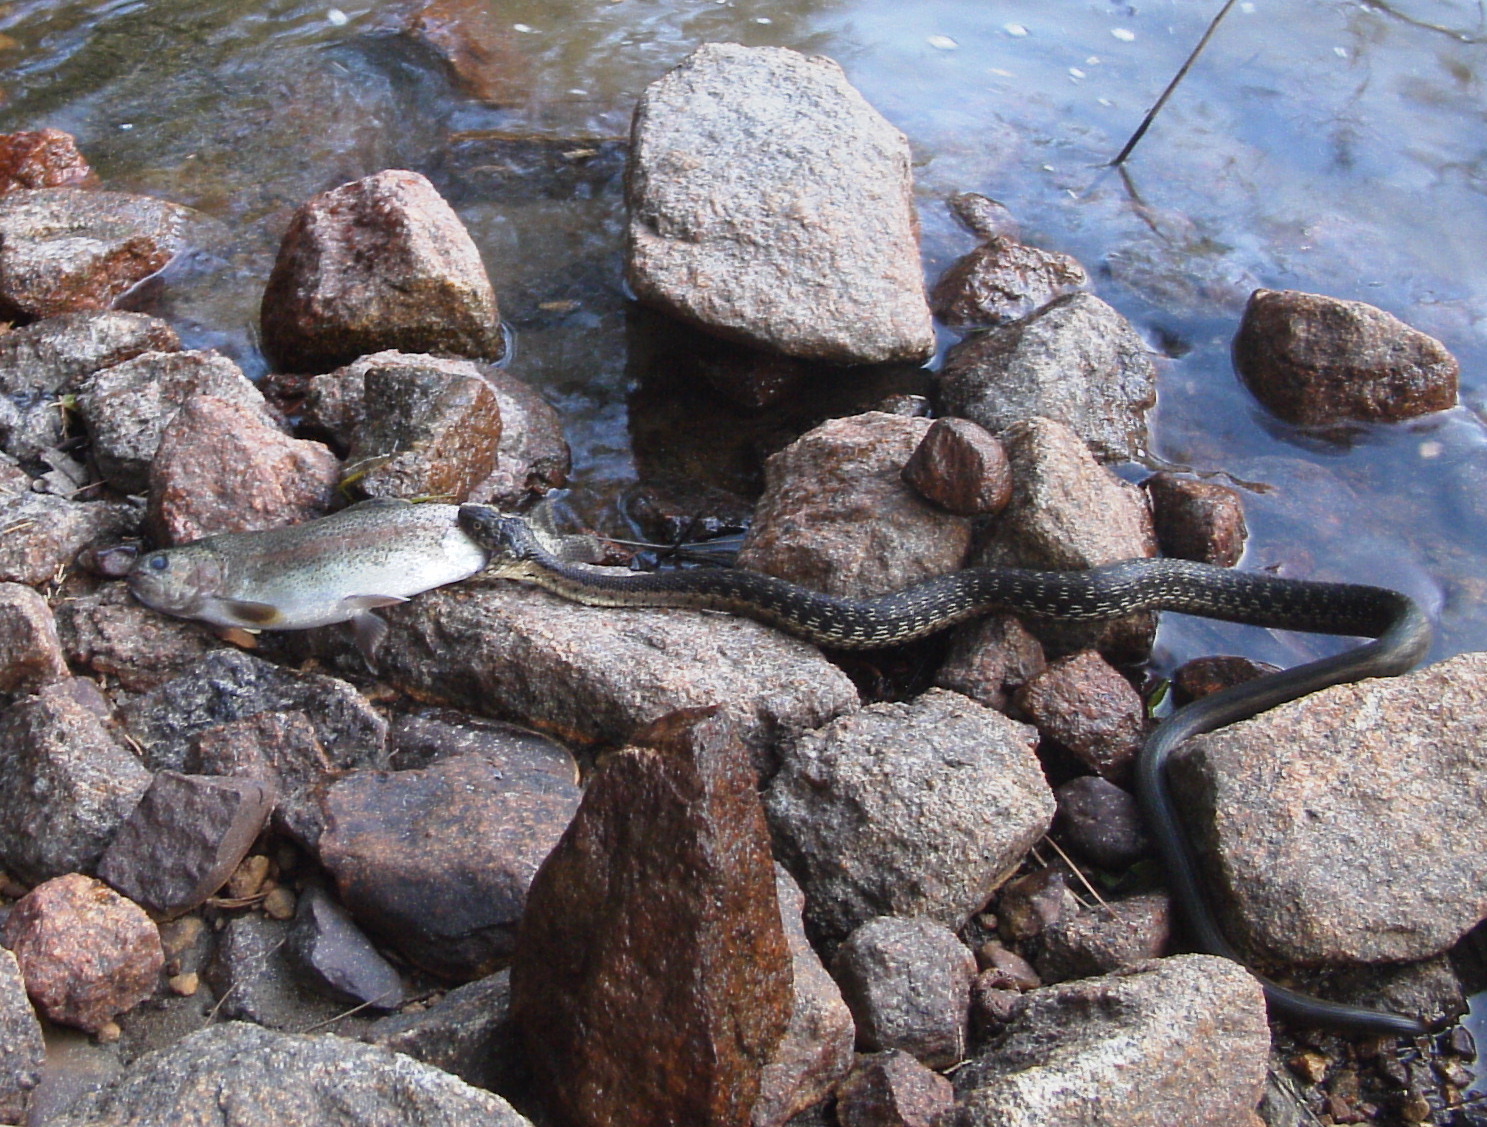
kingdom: Animalia
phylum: Chordata
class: Squamata
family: Colubridae
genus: Thamnophis
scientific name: Thamnophis couchii
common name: Western aquatic garter snake
